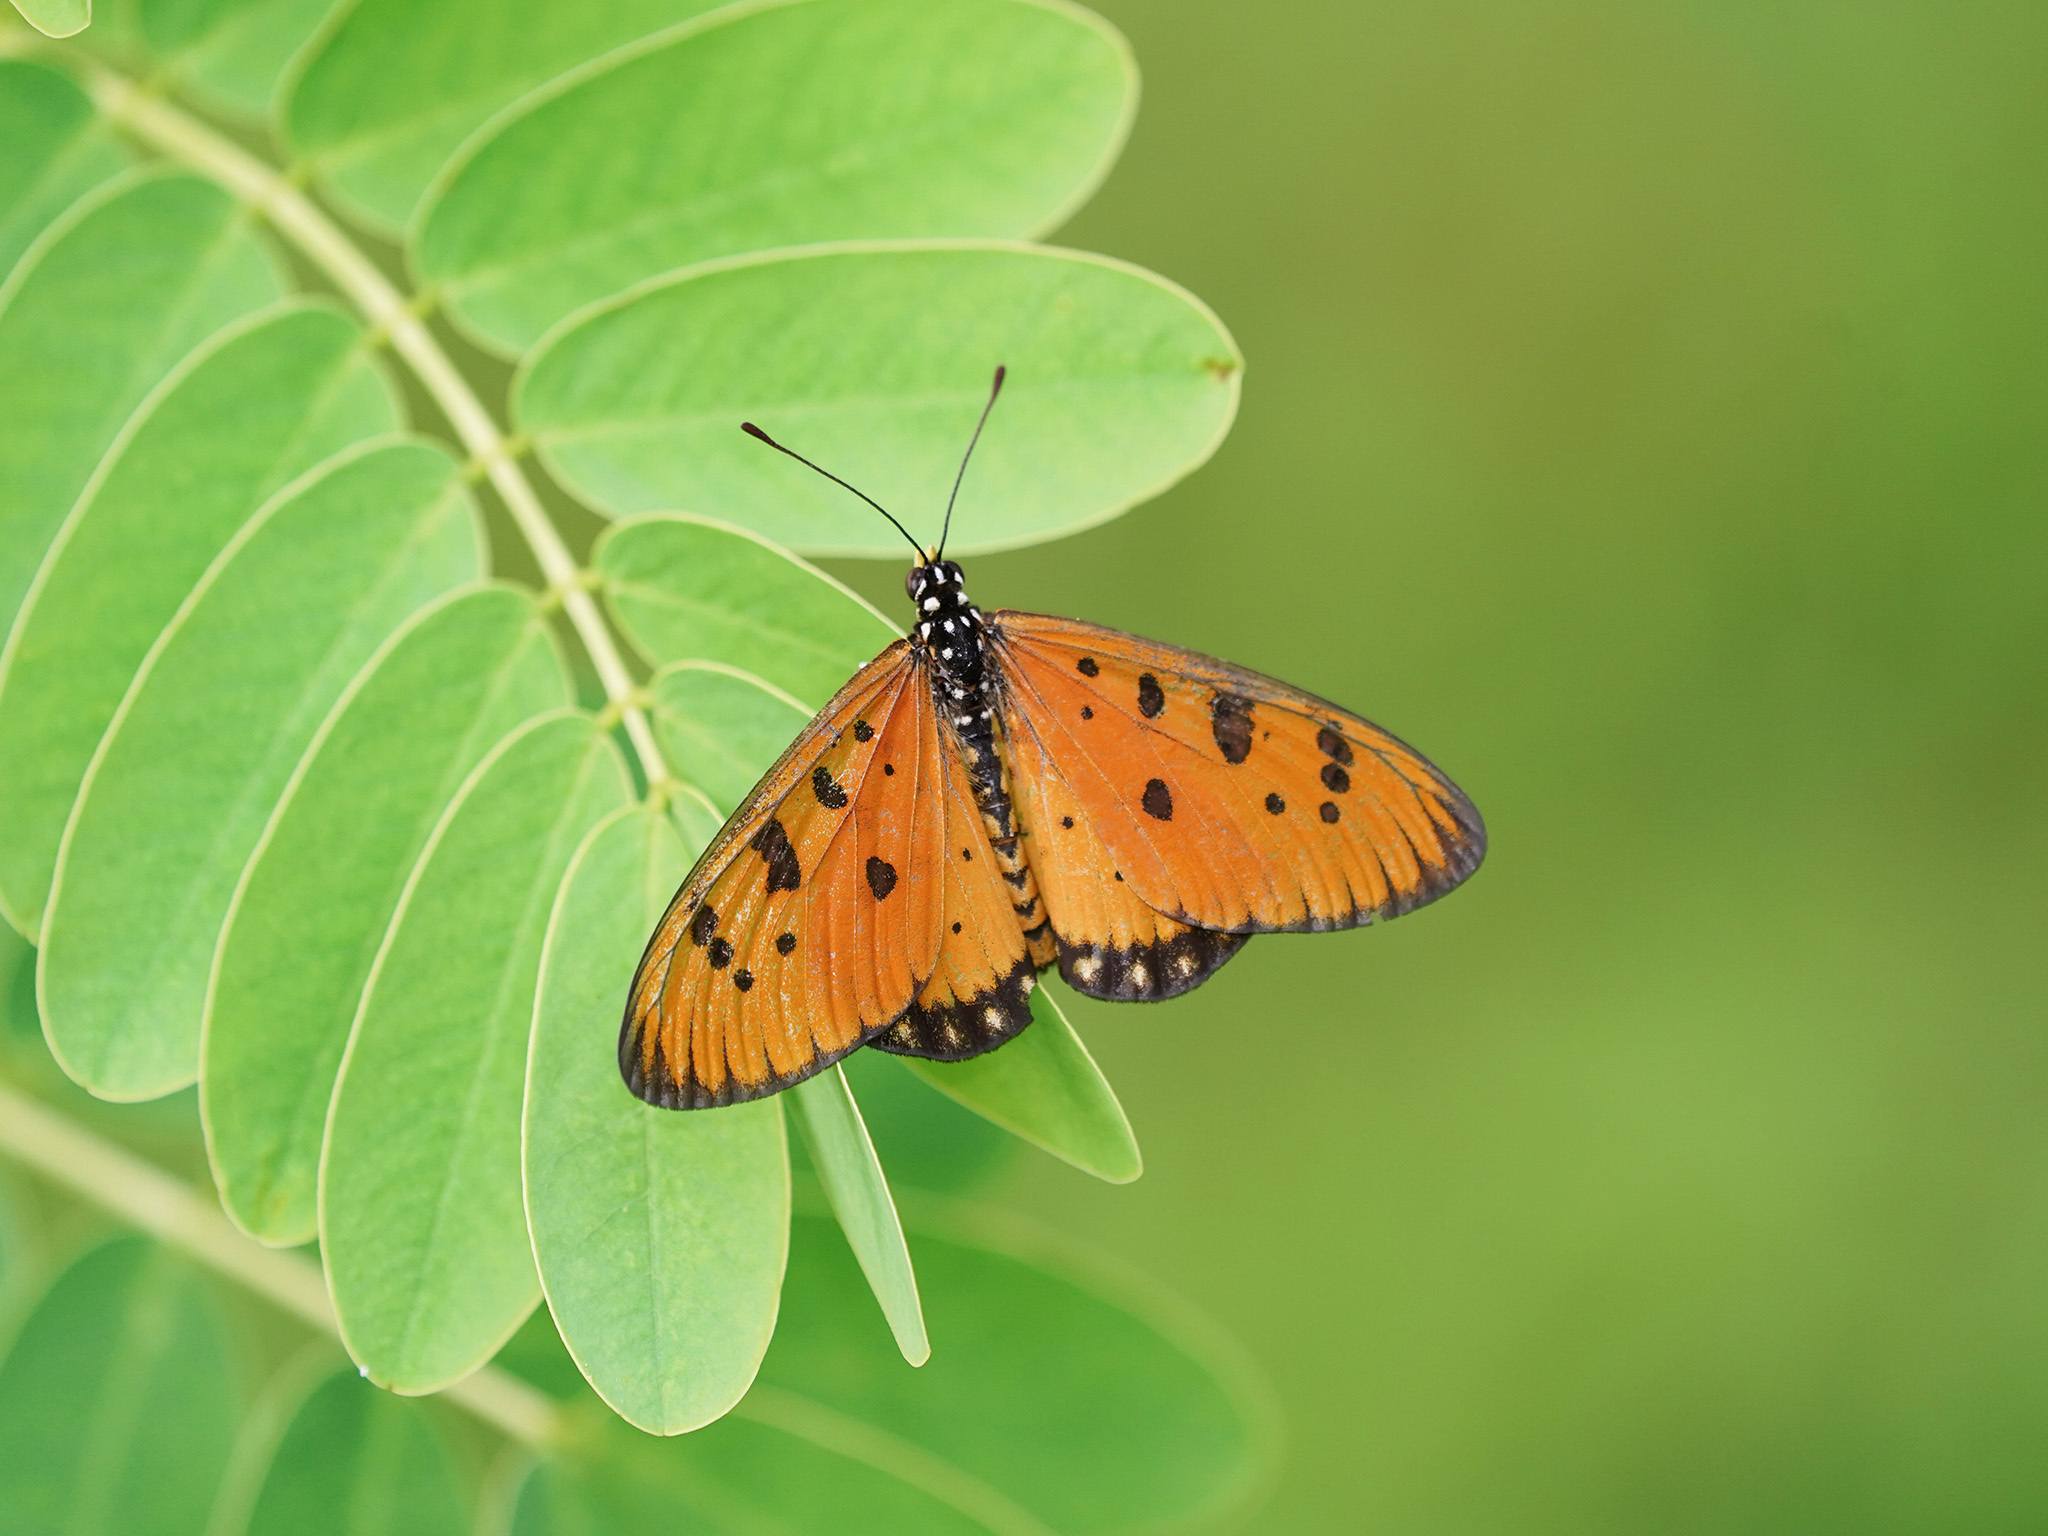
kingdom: Animalia
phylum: Arthropoda
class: Insecta
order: Lepidoptera
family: Nymphalidae
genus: Acraea
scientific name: Acraea terpsicore
